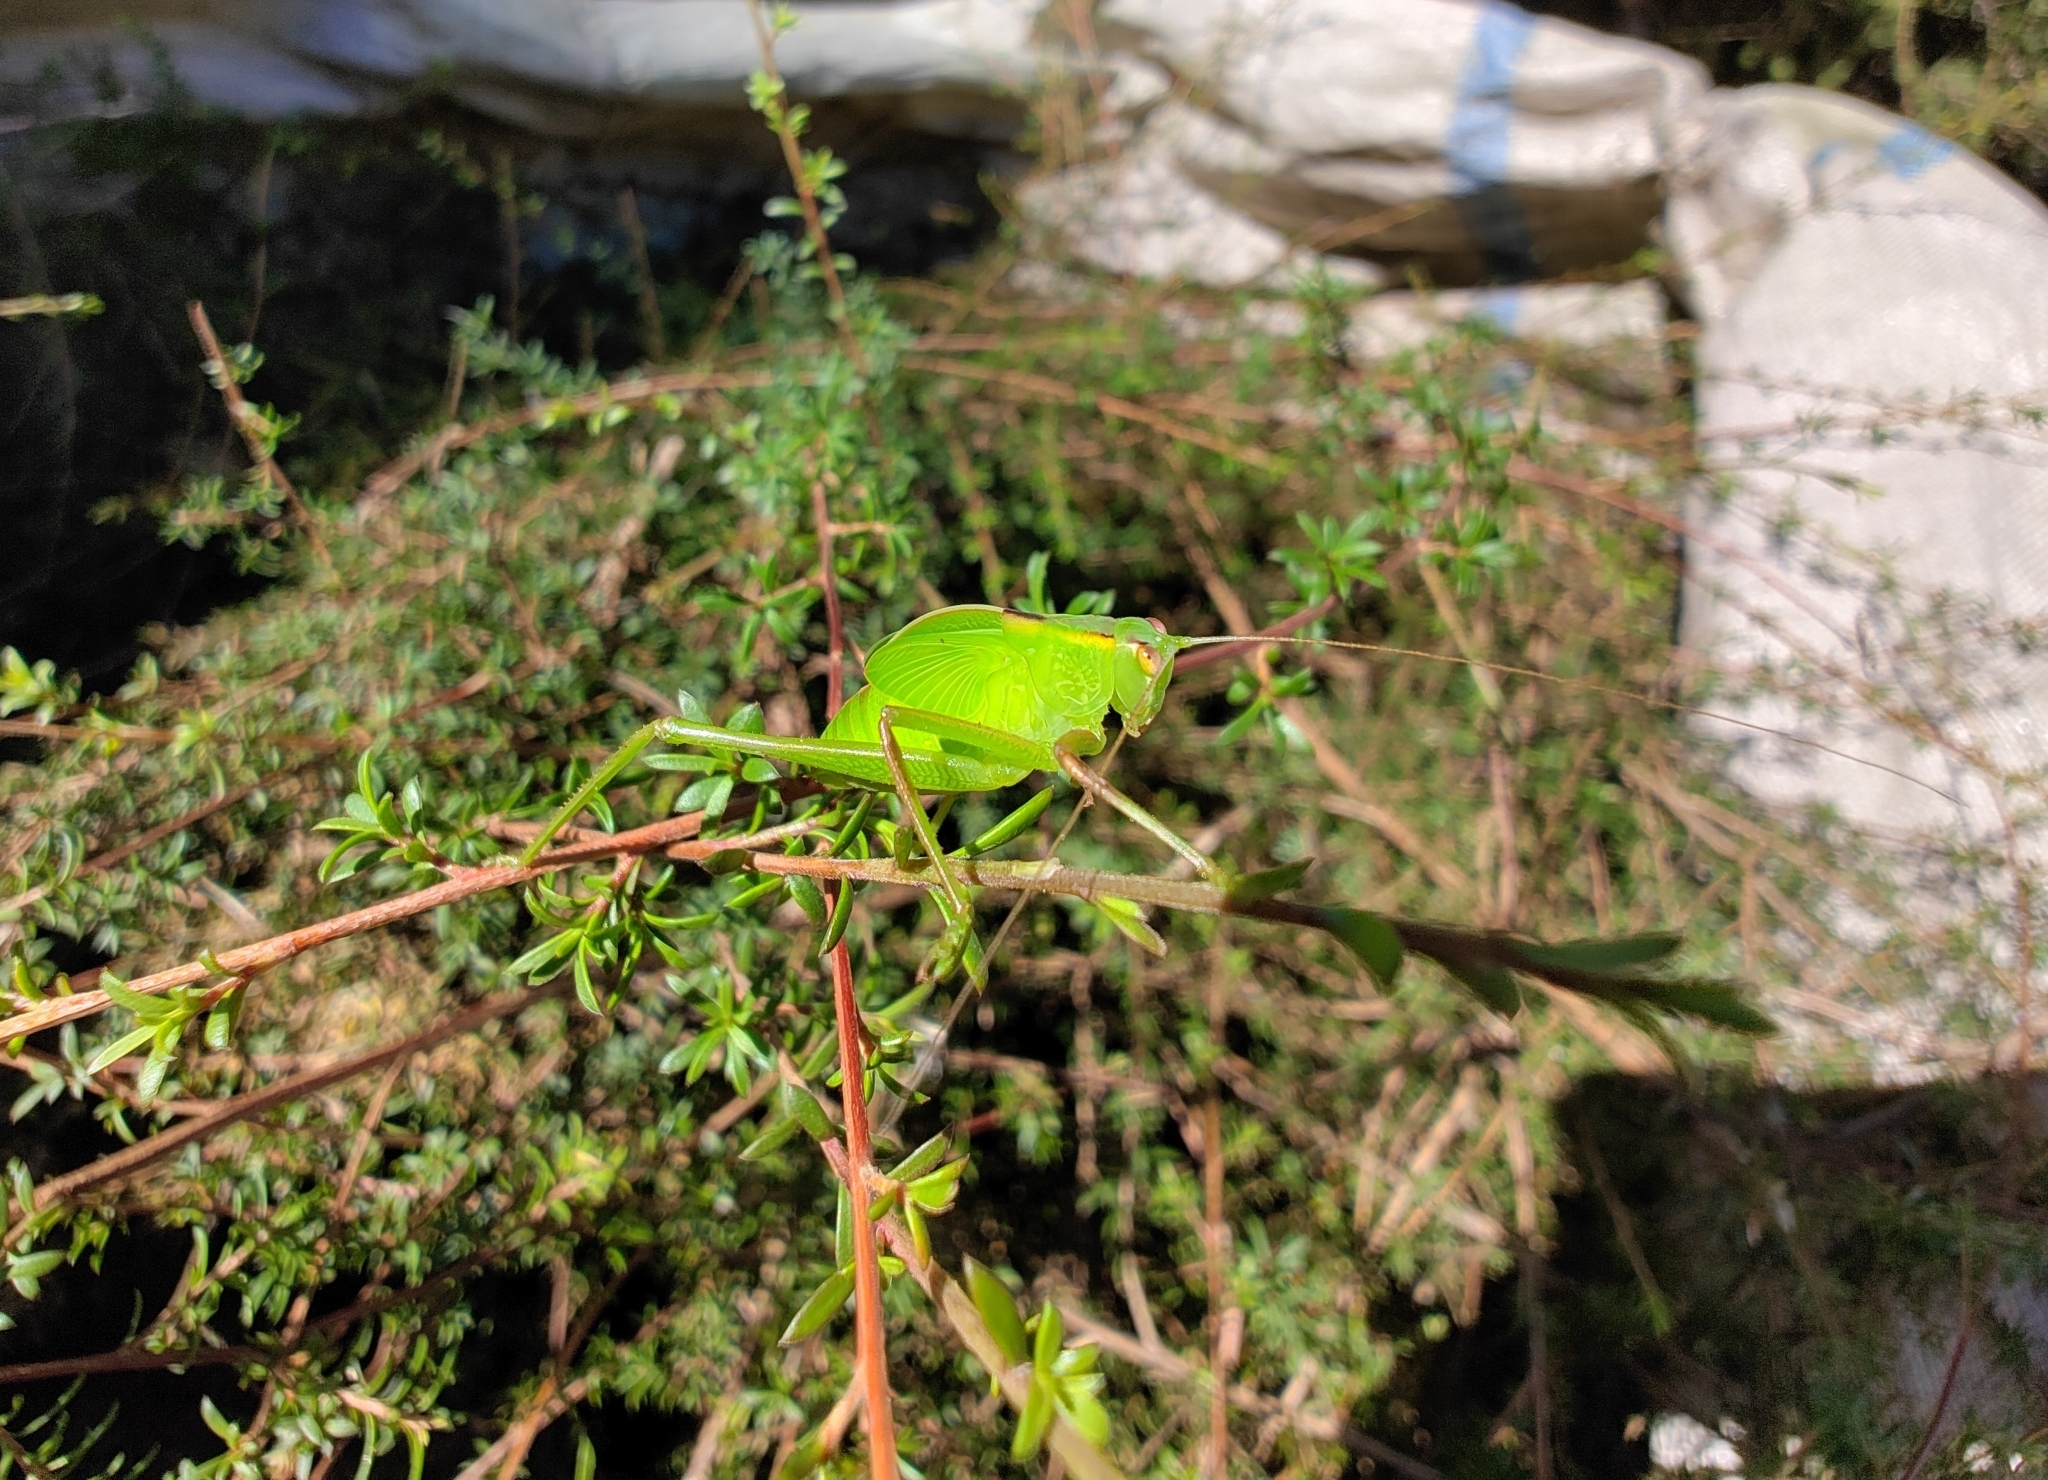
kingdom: Animalia
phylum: Arthropoda
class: Insecta
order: Orthoptera
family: Tettigoniidae
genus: Caedicia
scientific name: Caedicia simplex
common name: Common garden katydid
